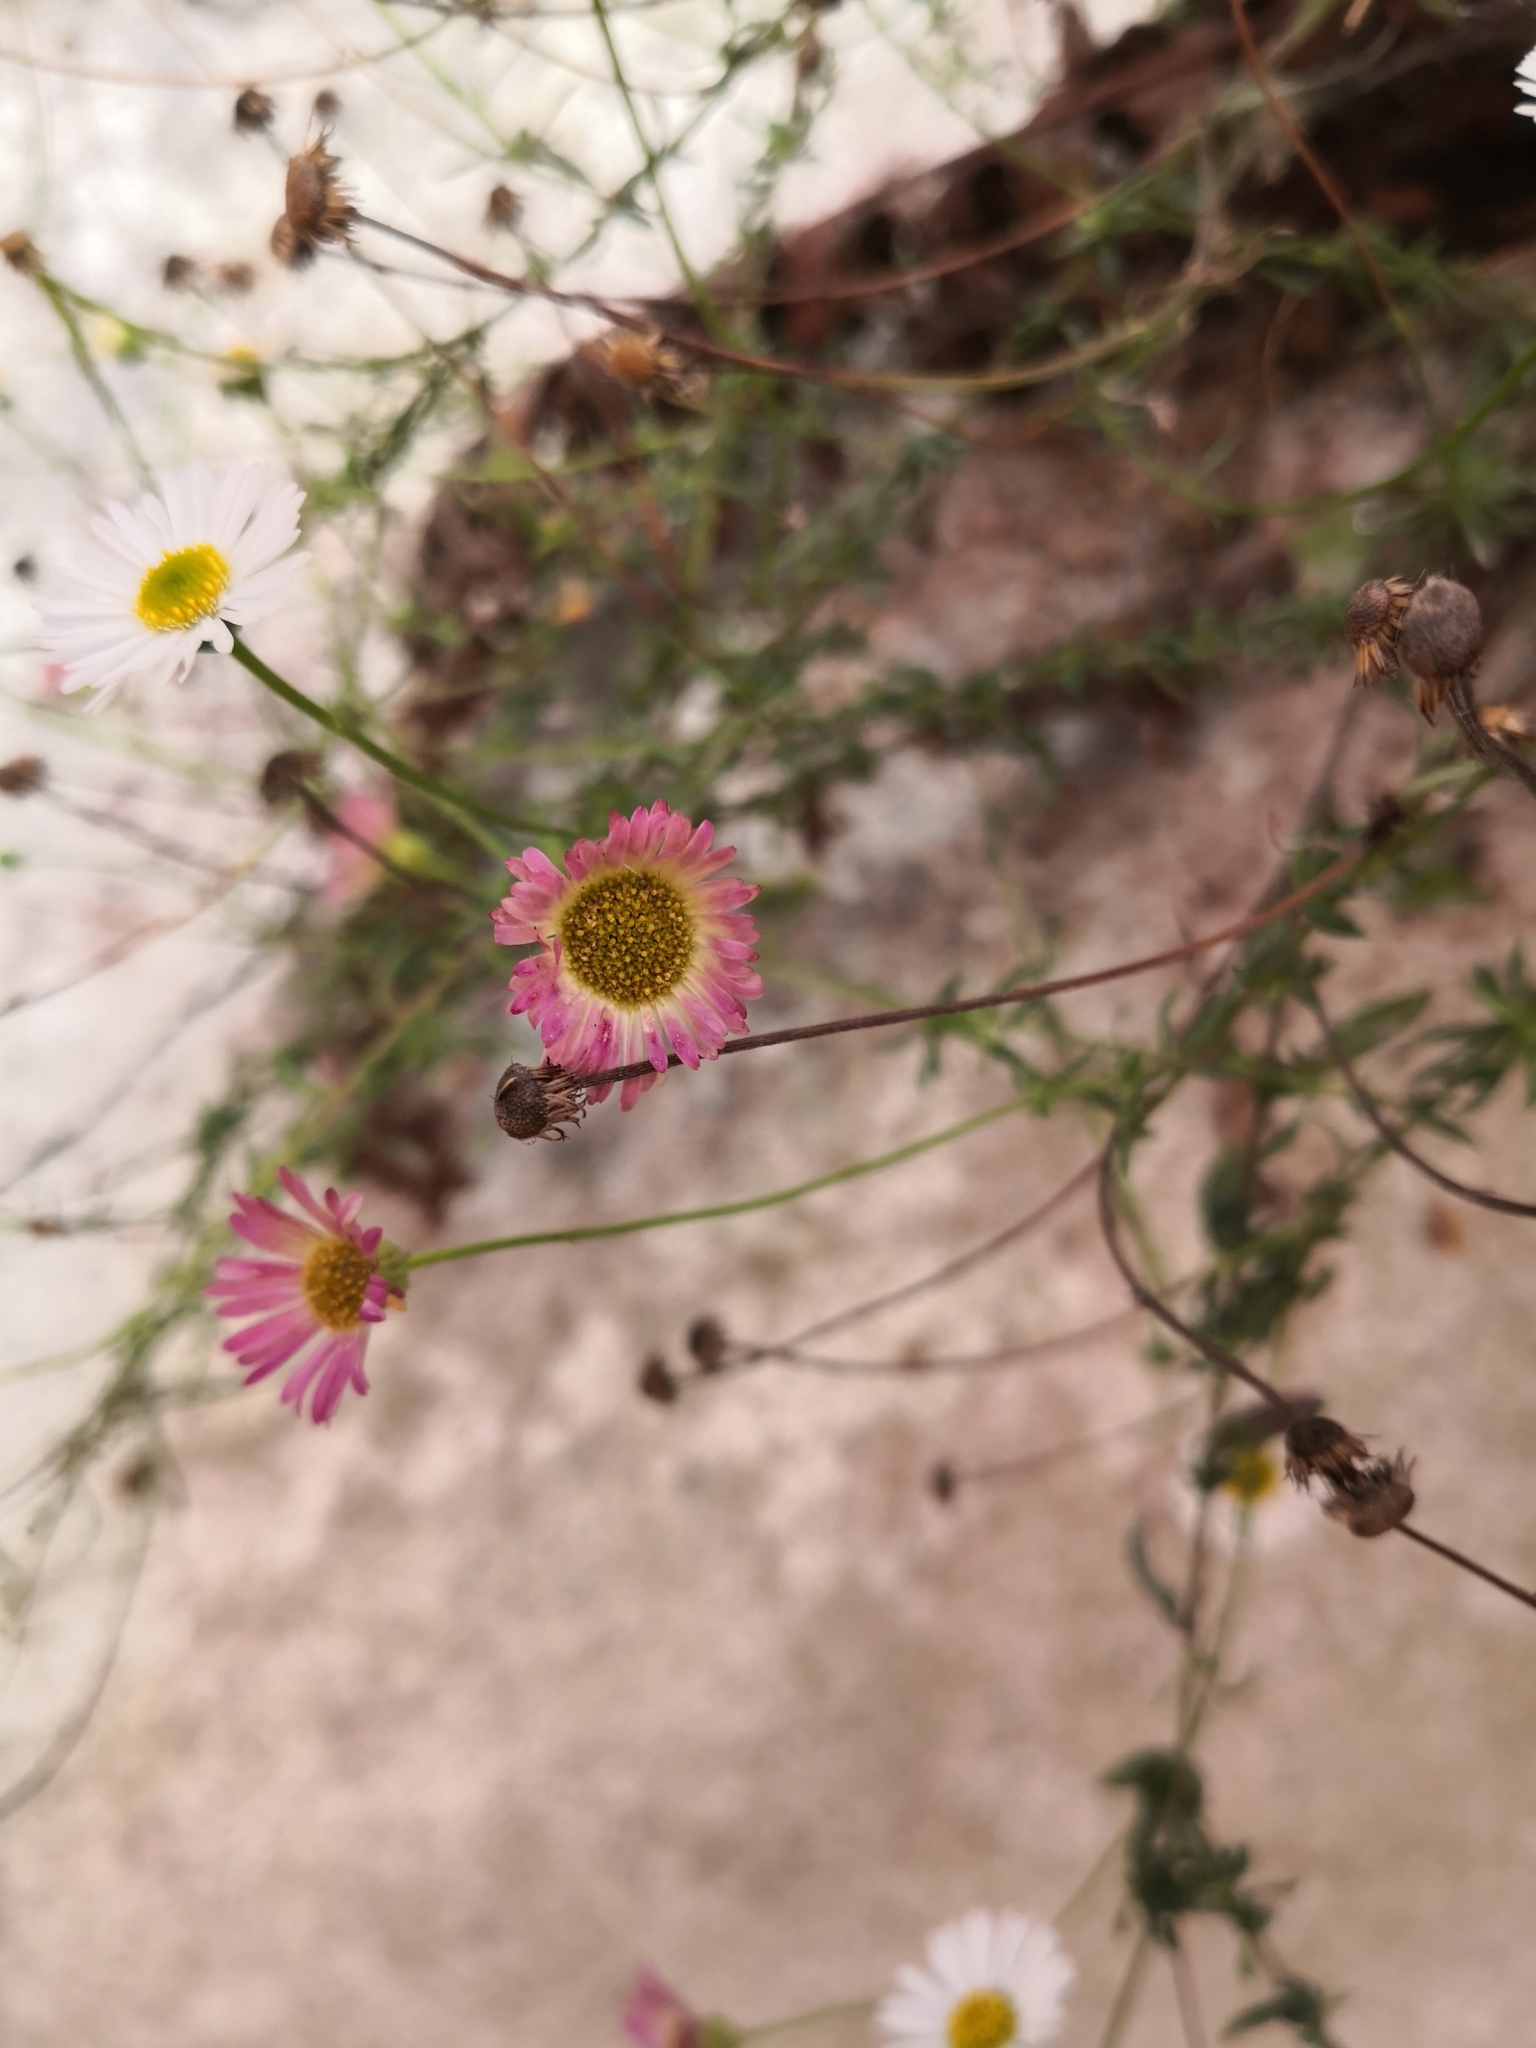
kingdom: Plantae
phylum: Tracheophyta
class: Magnoliopsida
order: Asterales
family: Asteraceae
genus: Erigeron
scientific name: Erigeron karvinskianus
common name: Mexican fleabane
